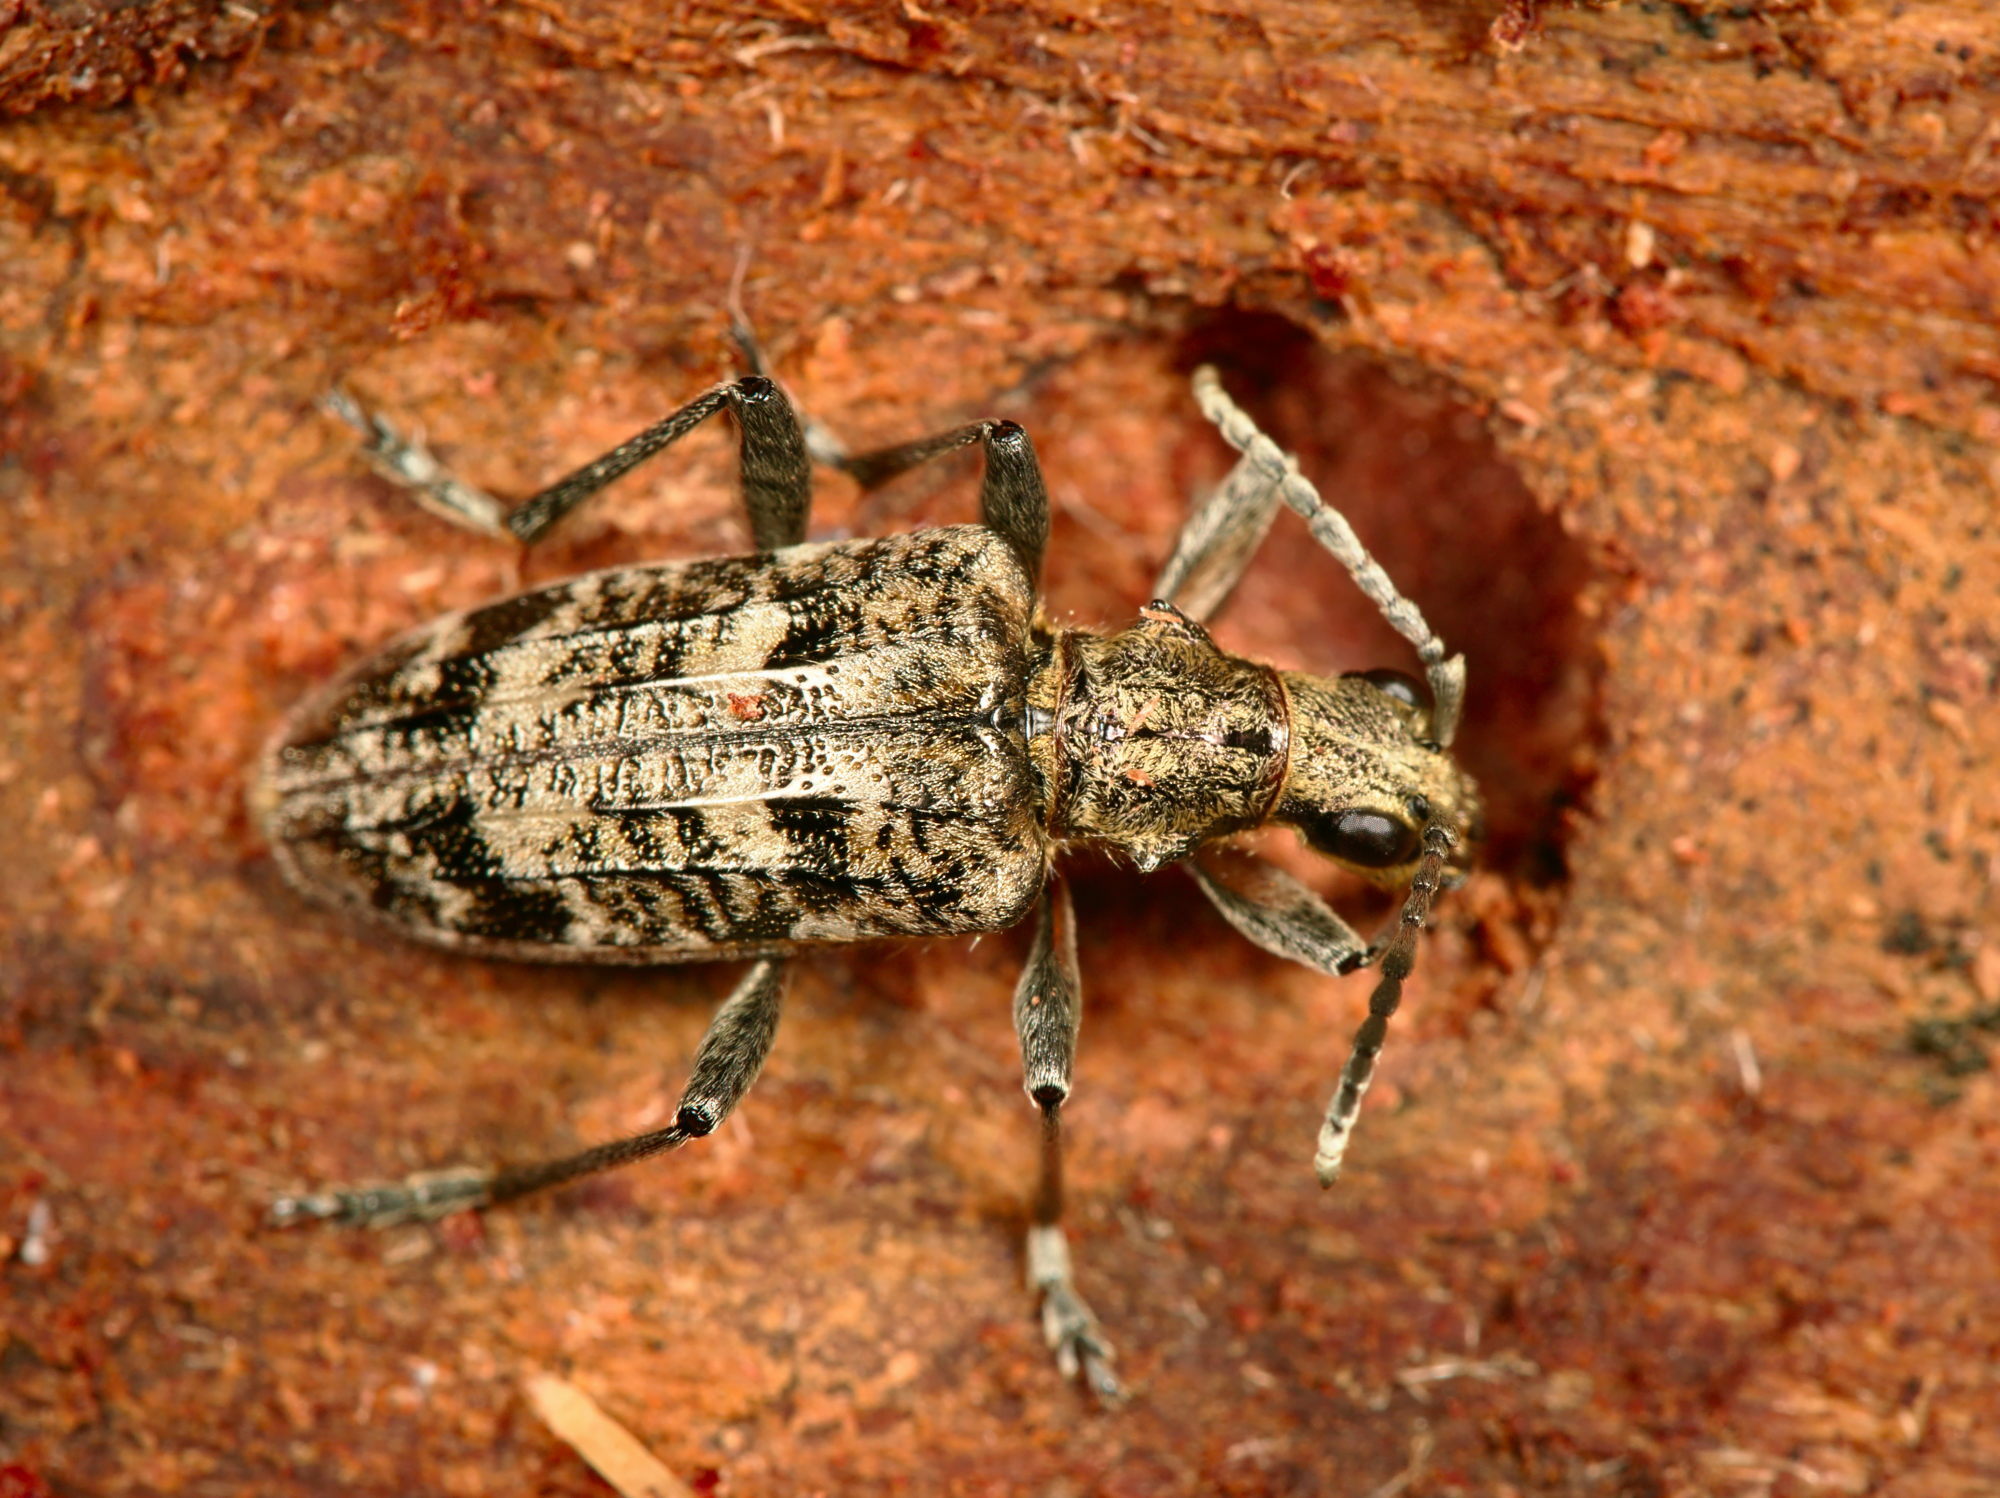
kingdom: Animalia
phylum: Arthropoda
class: Insecta
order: Coleoptera
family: Cerambycidae
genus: Rhagium
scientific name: Rhagium inquisitor
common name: Ribbed pine borer
